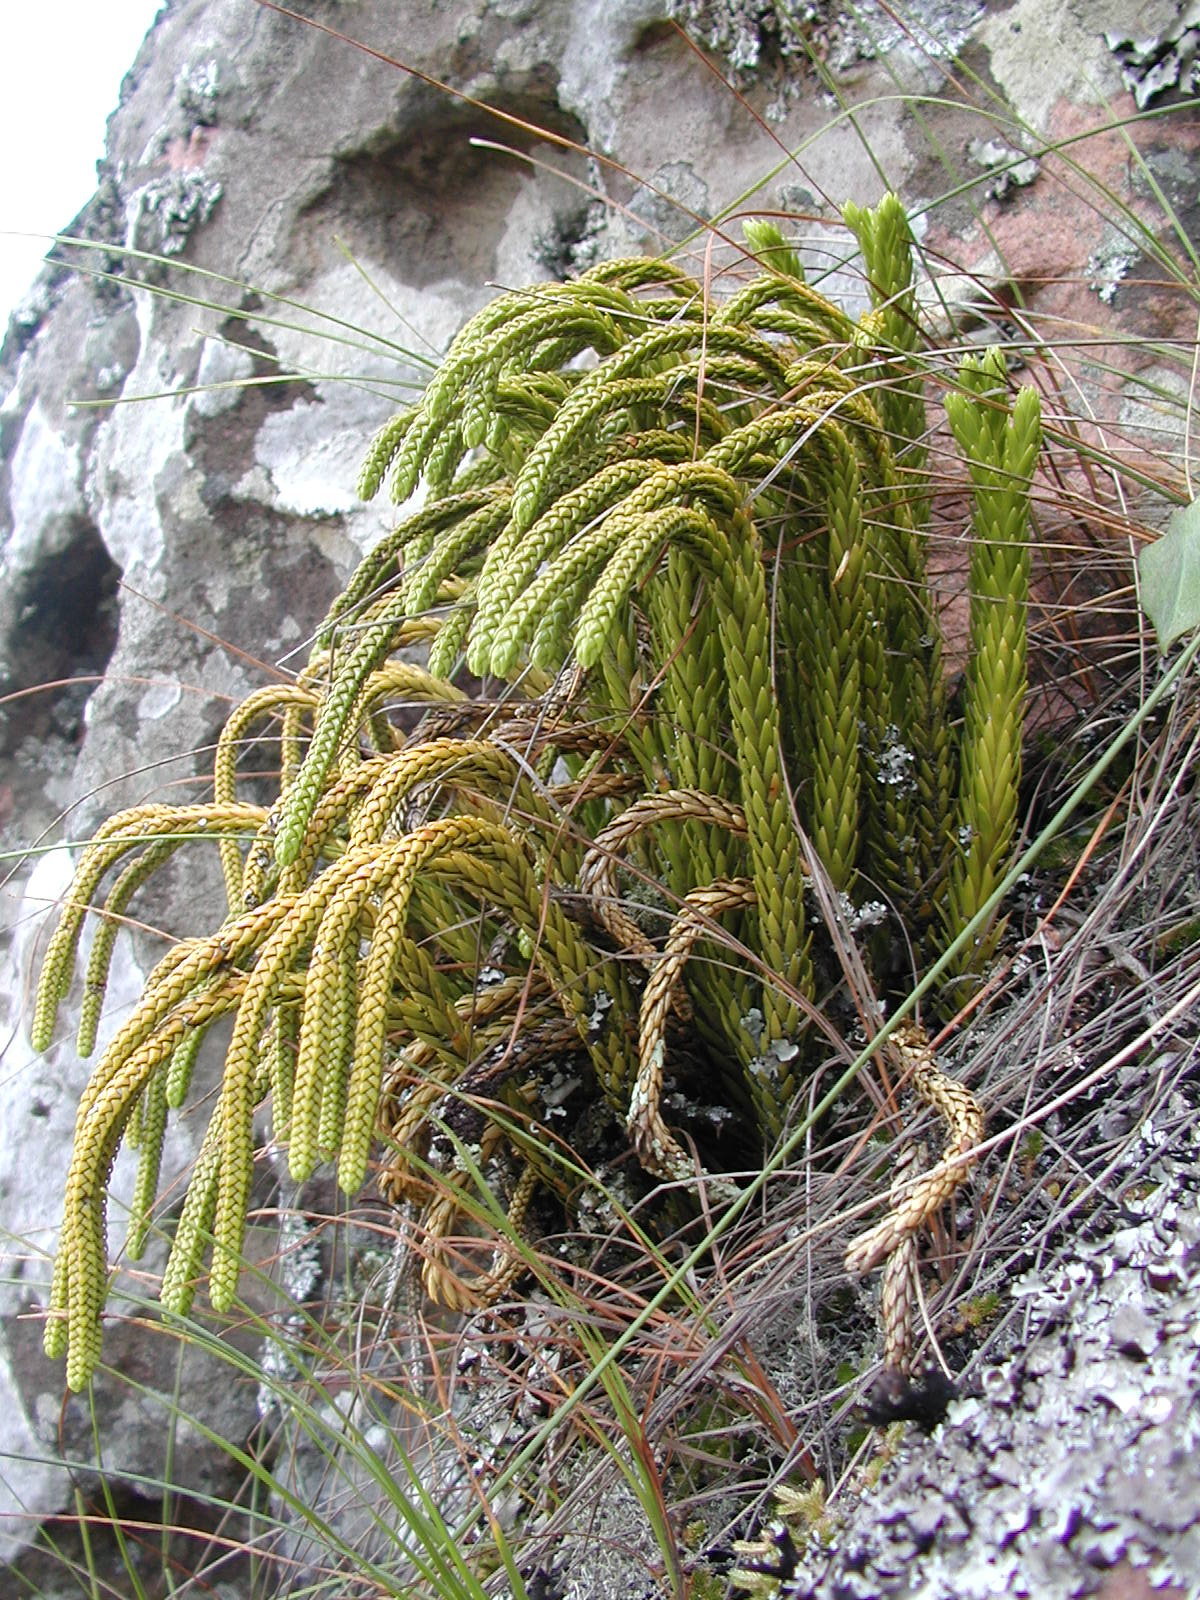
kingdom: Plantae
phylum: Tracheophyta
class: Lycopodiopsida
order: Lycopodiales
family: Lycopodiaceae
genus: Phlegmariurus
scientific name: Phlegmariurus gnidioides
